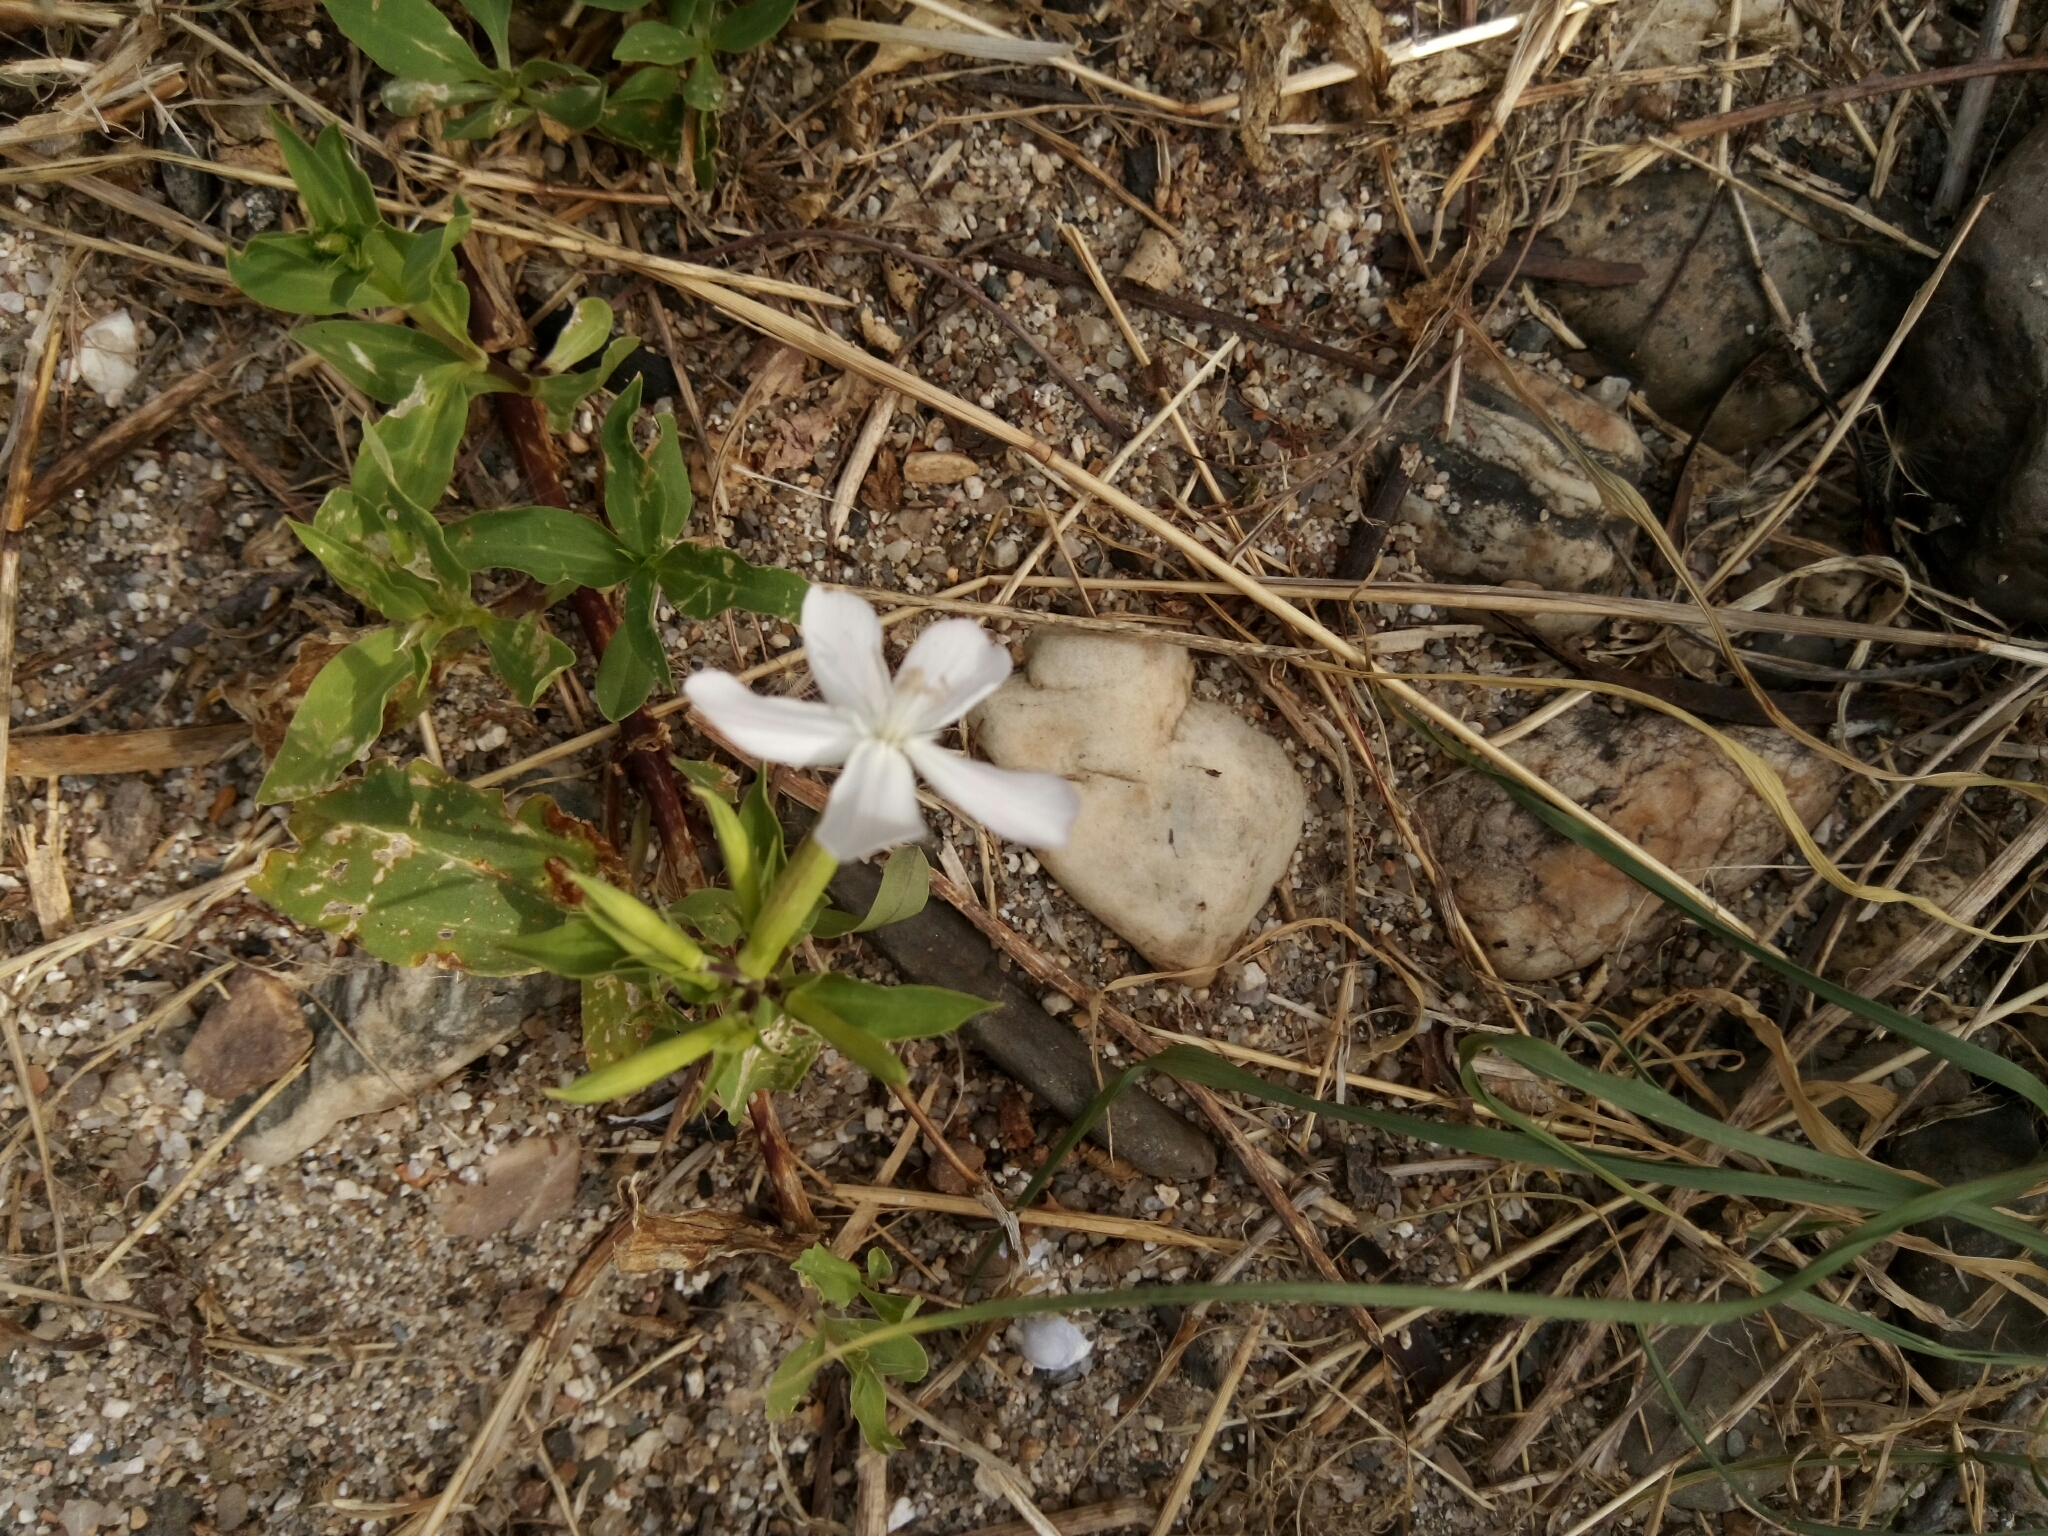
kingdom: Plantae
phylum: Tracheophyta
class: Magnoliopsida
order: Caryophyllales
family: Caryophyllaceae
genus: Saponaria
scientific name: Saponaria officinalis
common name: Soapwort
